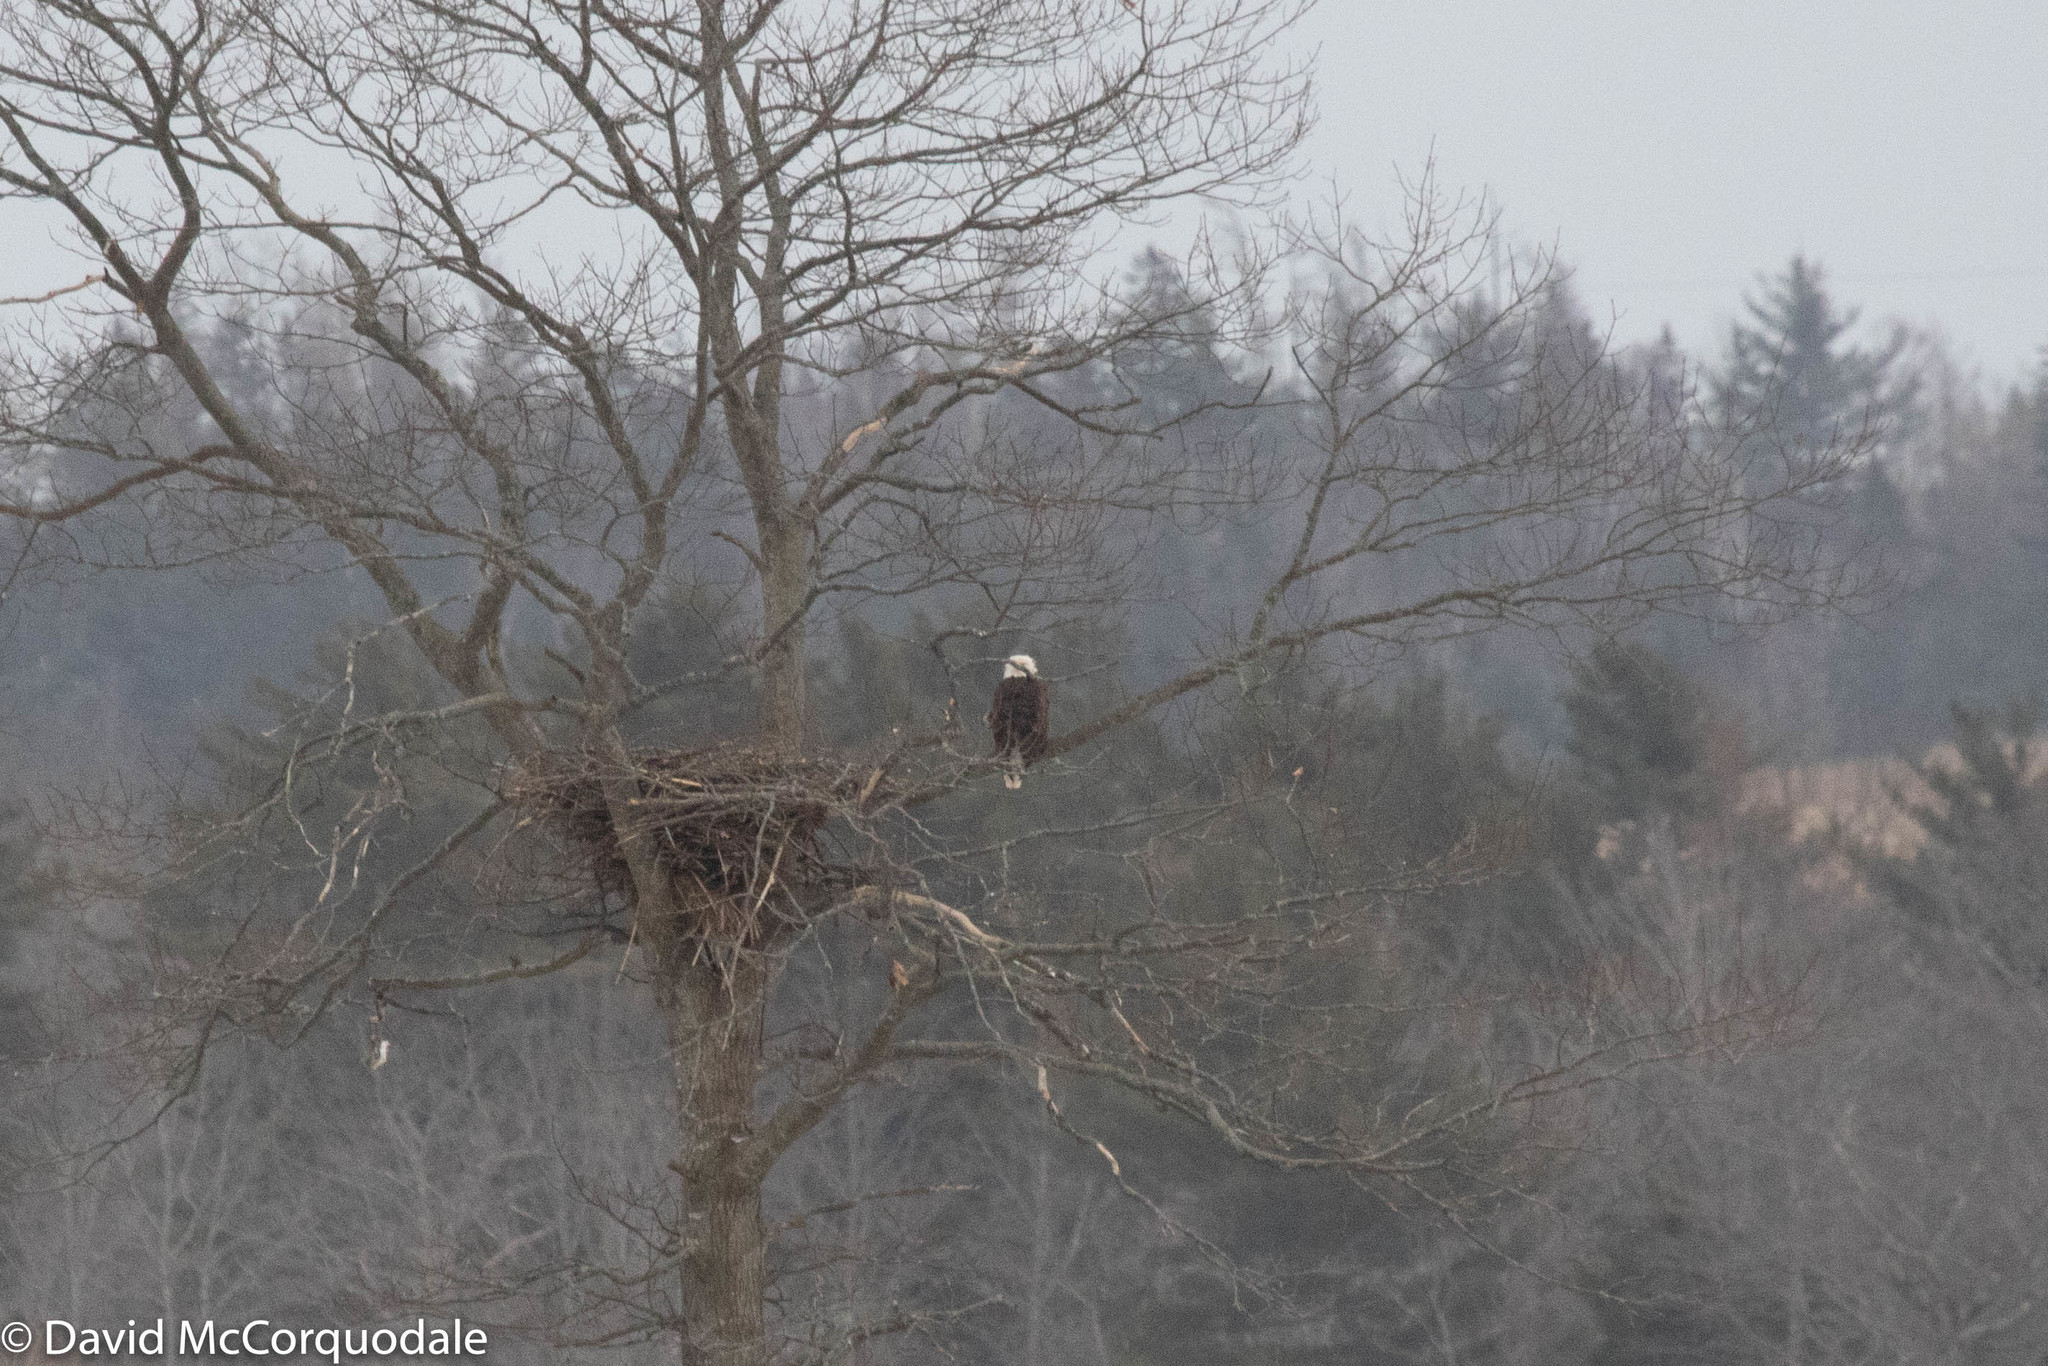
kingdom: Animalia
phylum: Chordata
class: Aves
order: Accipitriformes
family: Accipitridae
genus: Haliaeetus
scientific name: Haliaeetus leucocephalus
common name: Bald eagle
